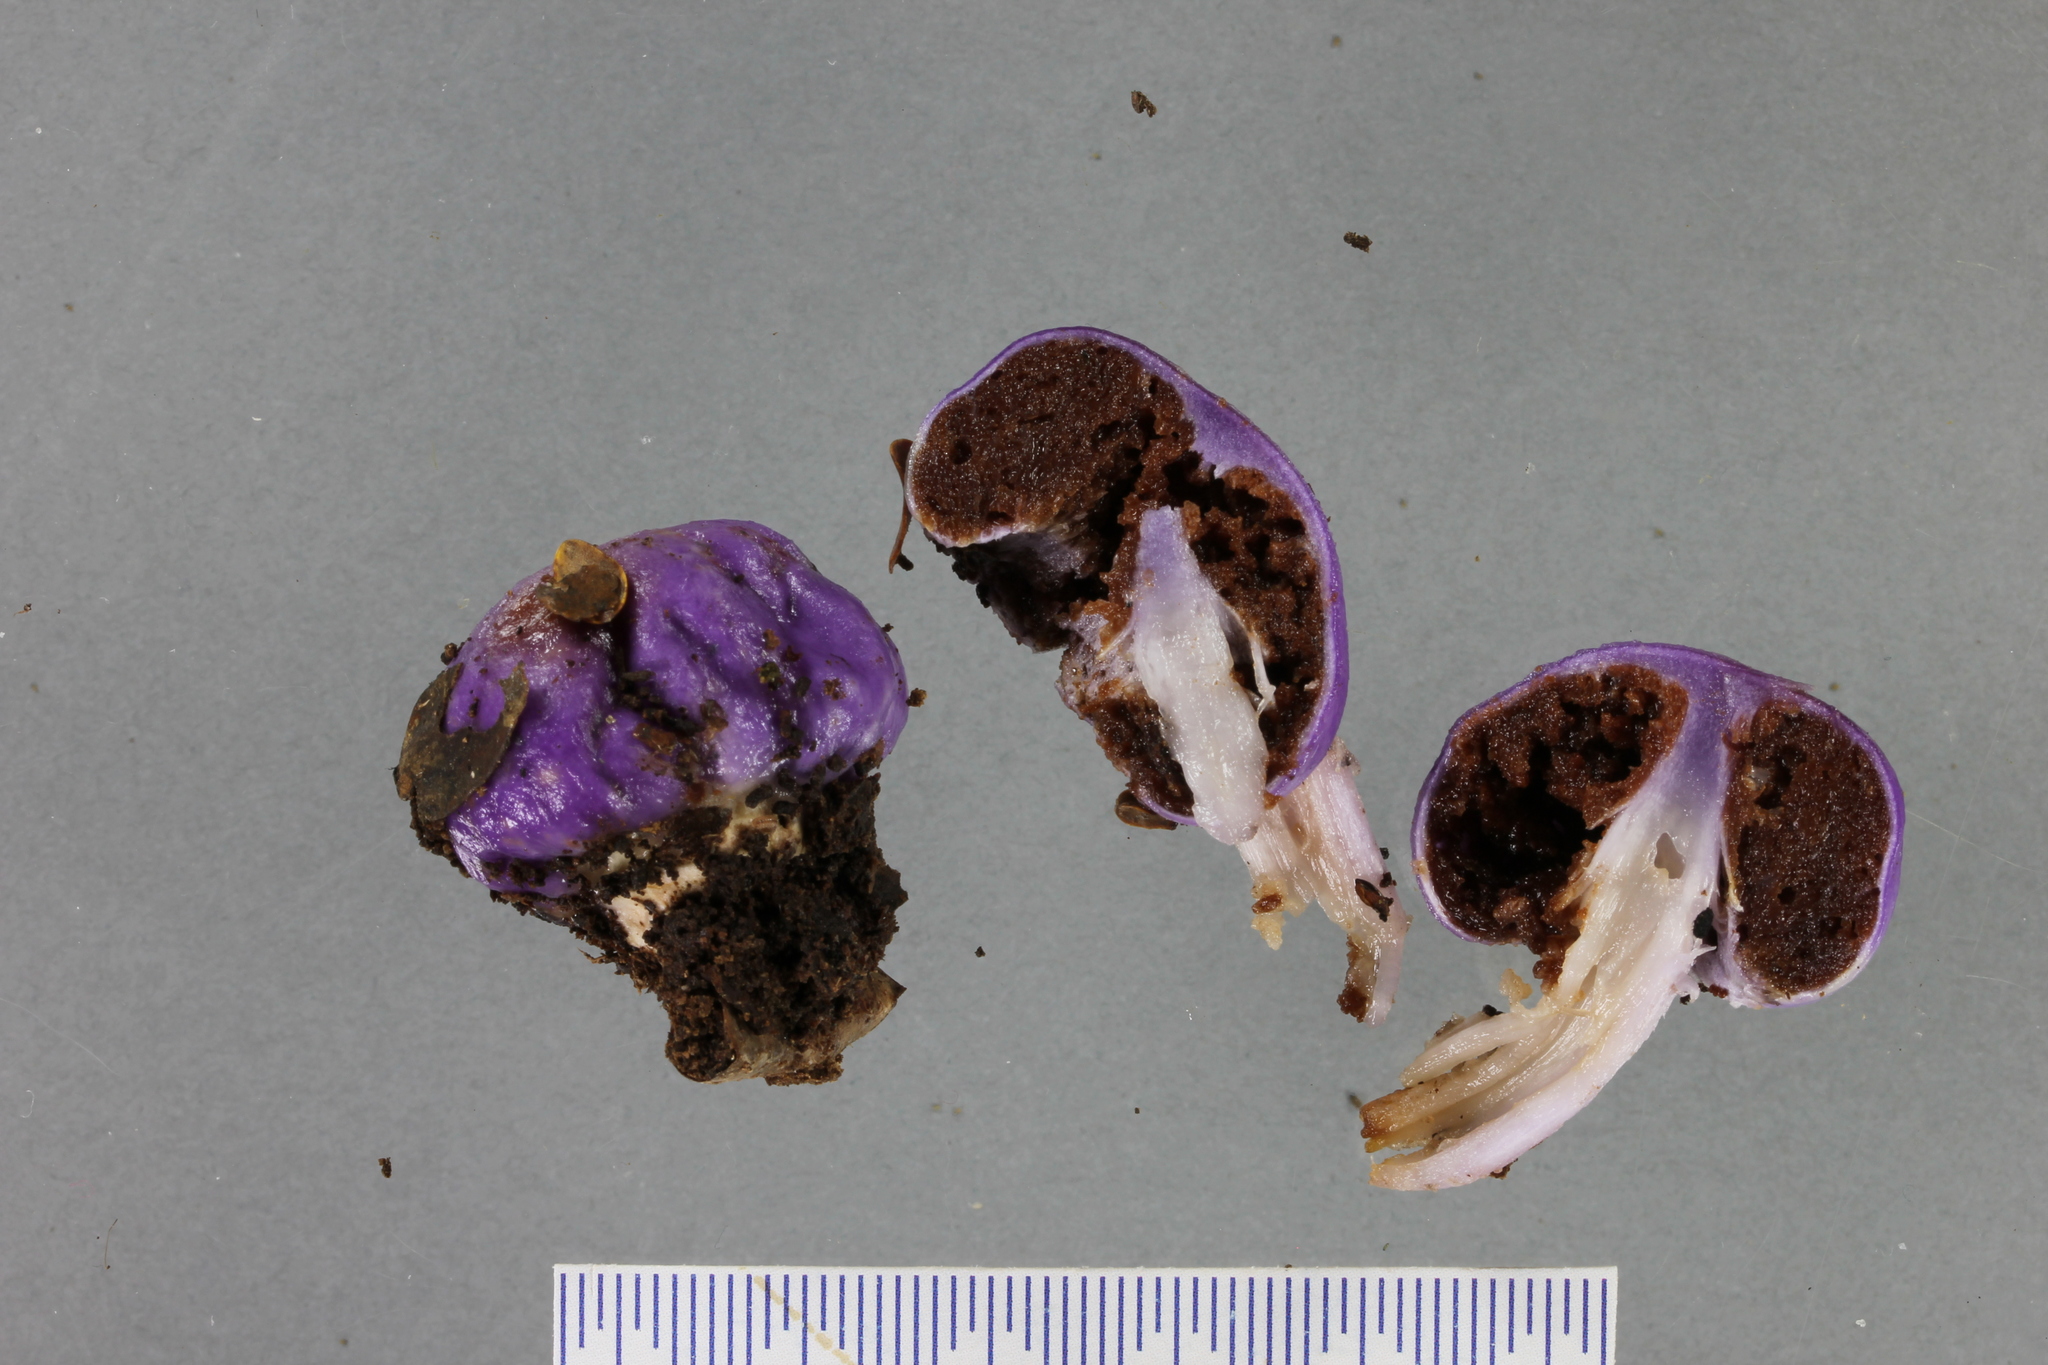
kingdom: Fungi
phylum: Basidiomycota
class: Agaricomycetes
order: Agaricales
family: Cortinariaceae
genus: Cortinarius
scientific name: Cortinarius violaceovolvatus
